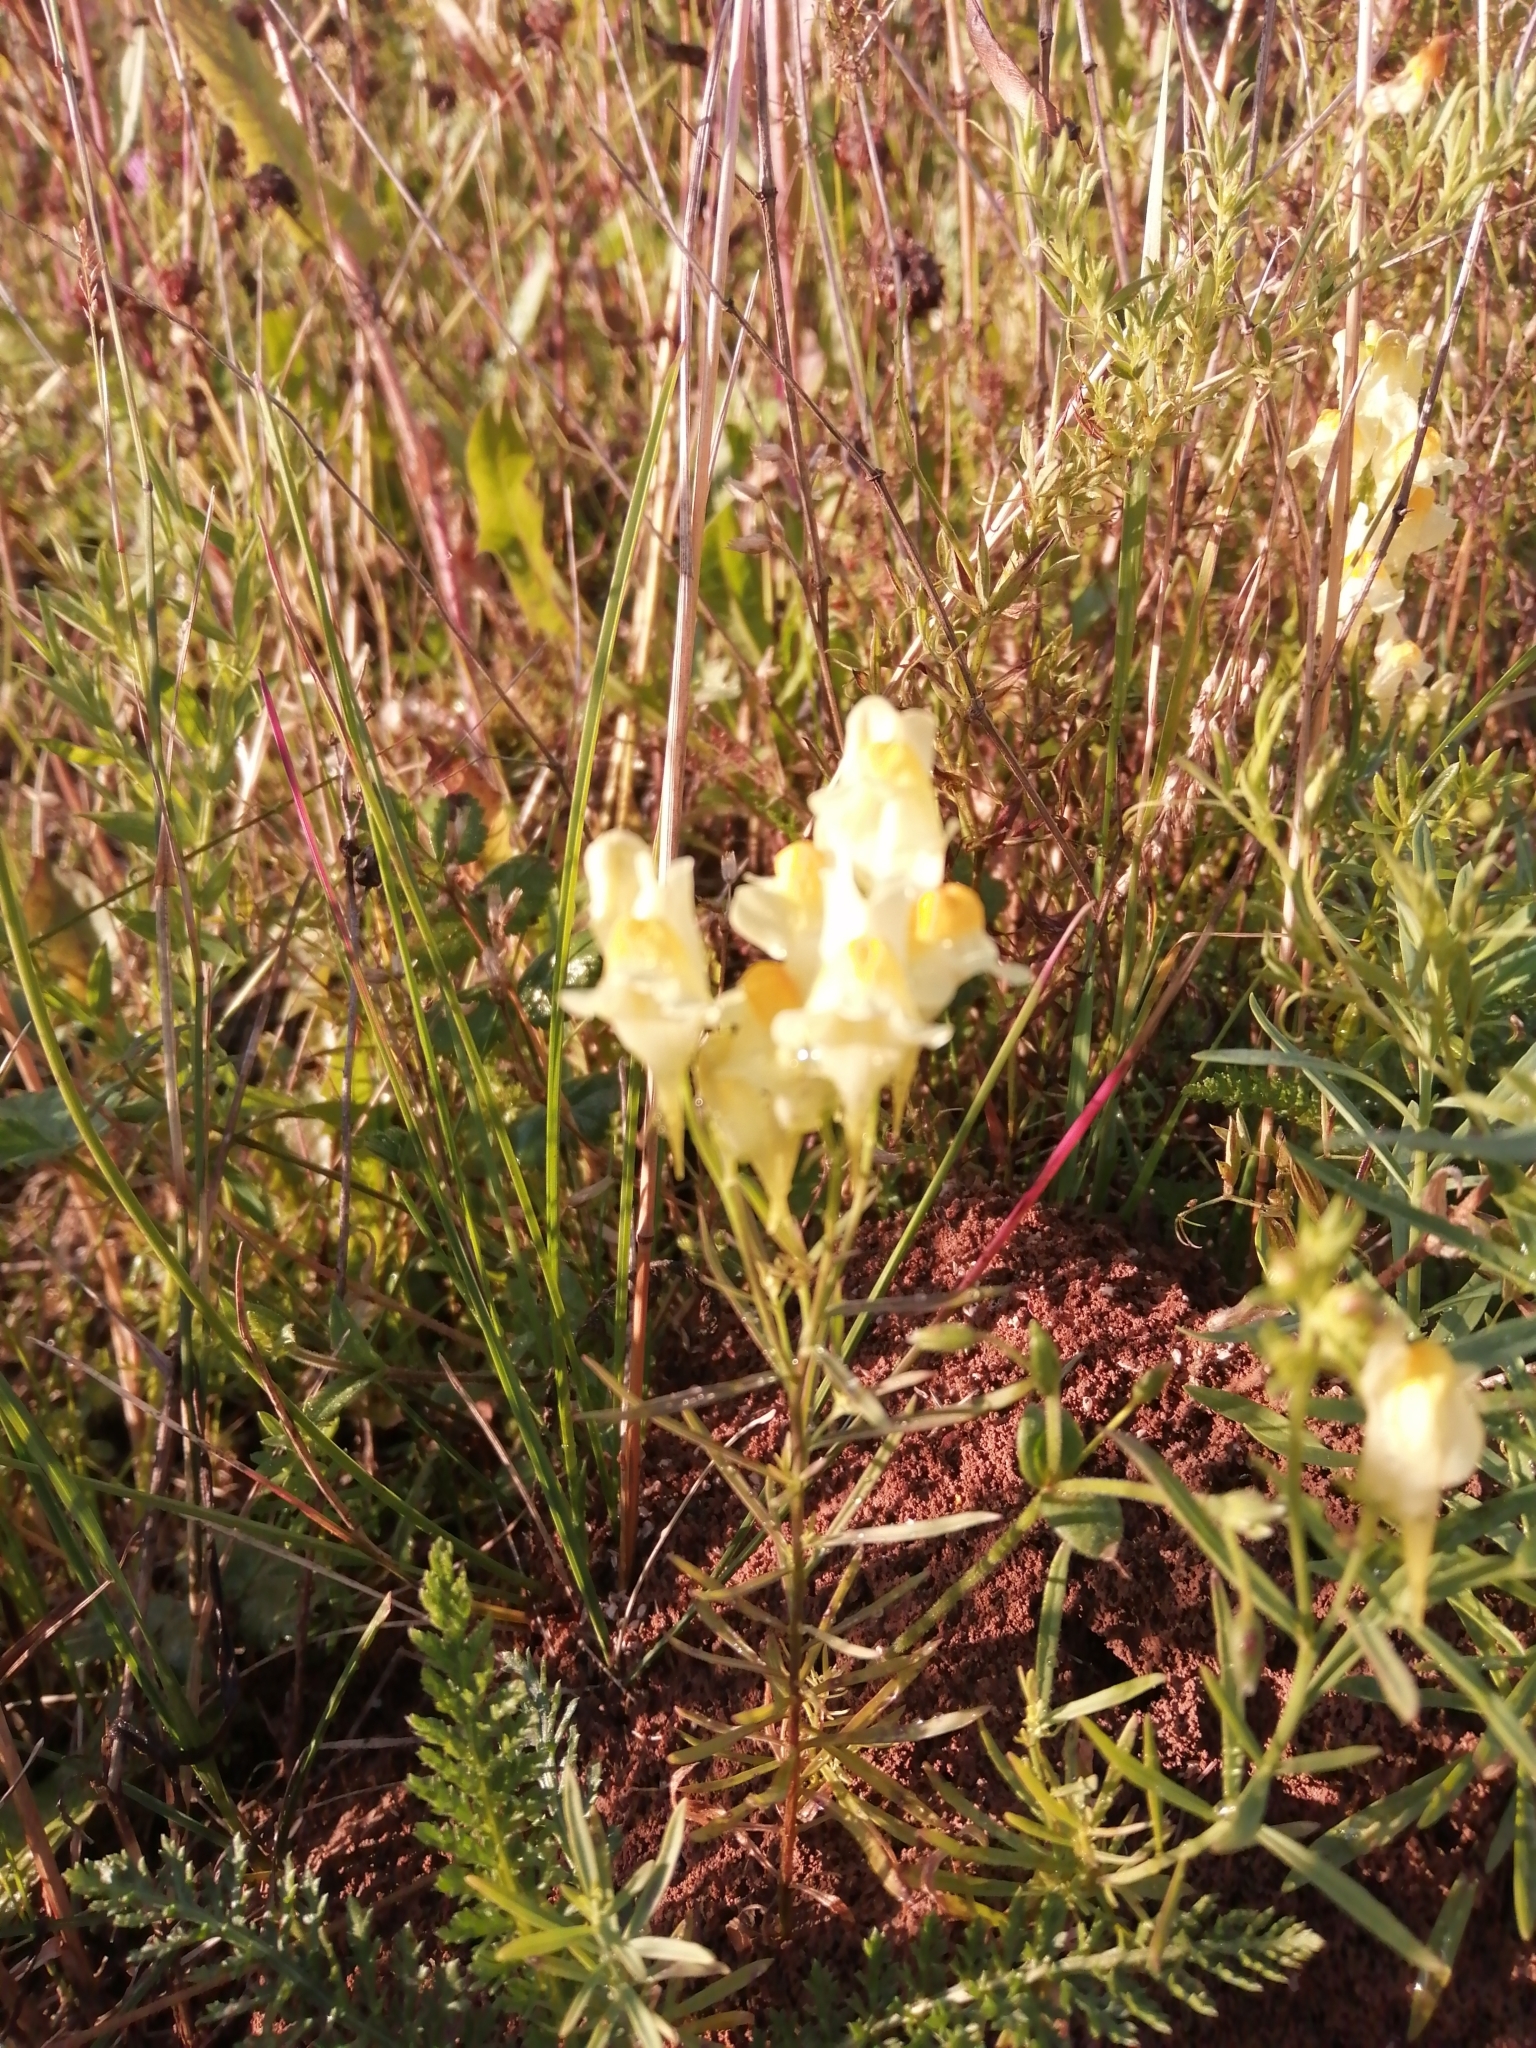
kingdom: Plantae
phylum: Tracheophyta
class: Magnoliopsida
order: Lamiales
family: Plantaginaceae
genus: Linaria
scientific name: Linaria vulgaris
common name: Butter and eggs
